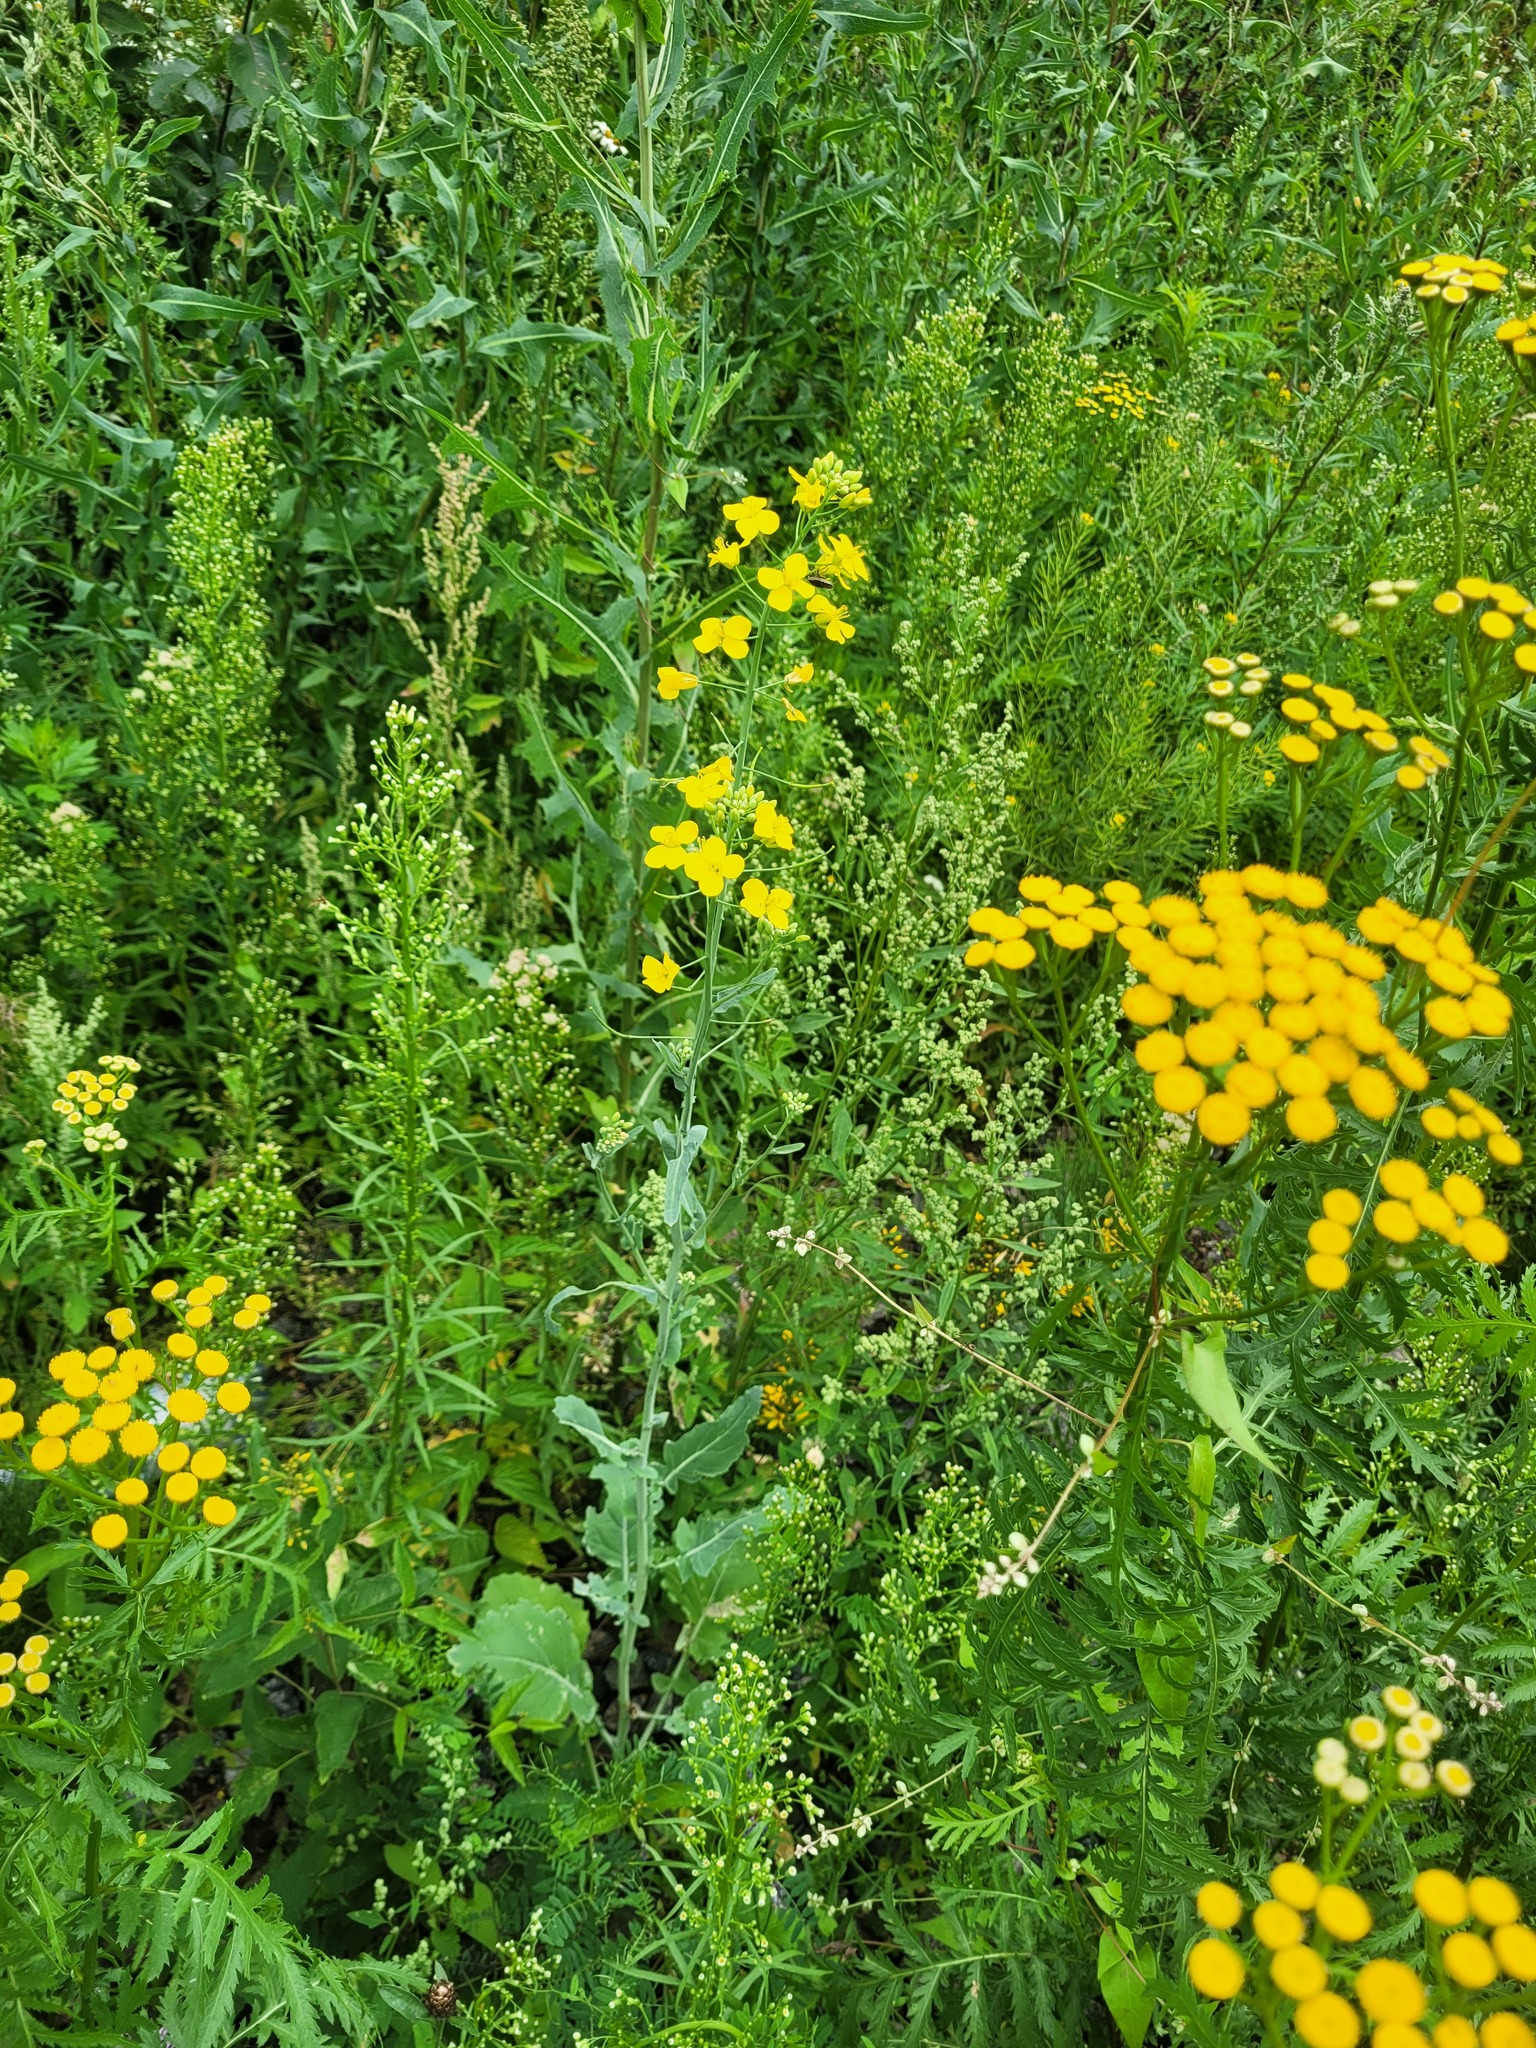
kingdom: Plantae
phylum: Tracheophyta
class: Magnoliopsida
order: Brassicales
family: Brassicaceae
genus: Brassica
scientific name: Brassica napus
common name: Rape
